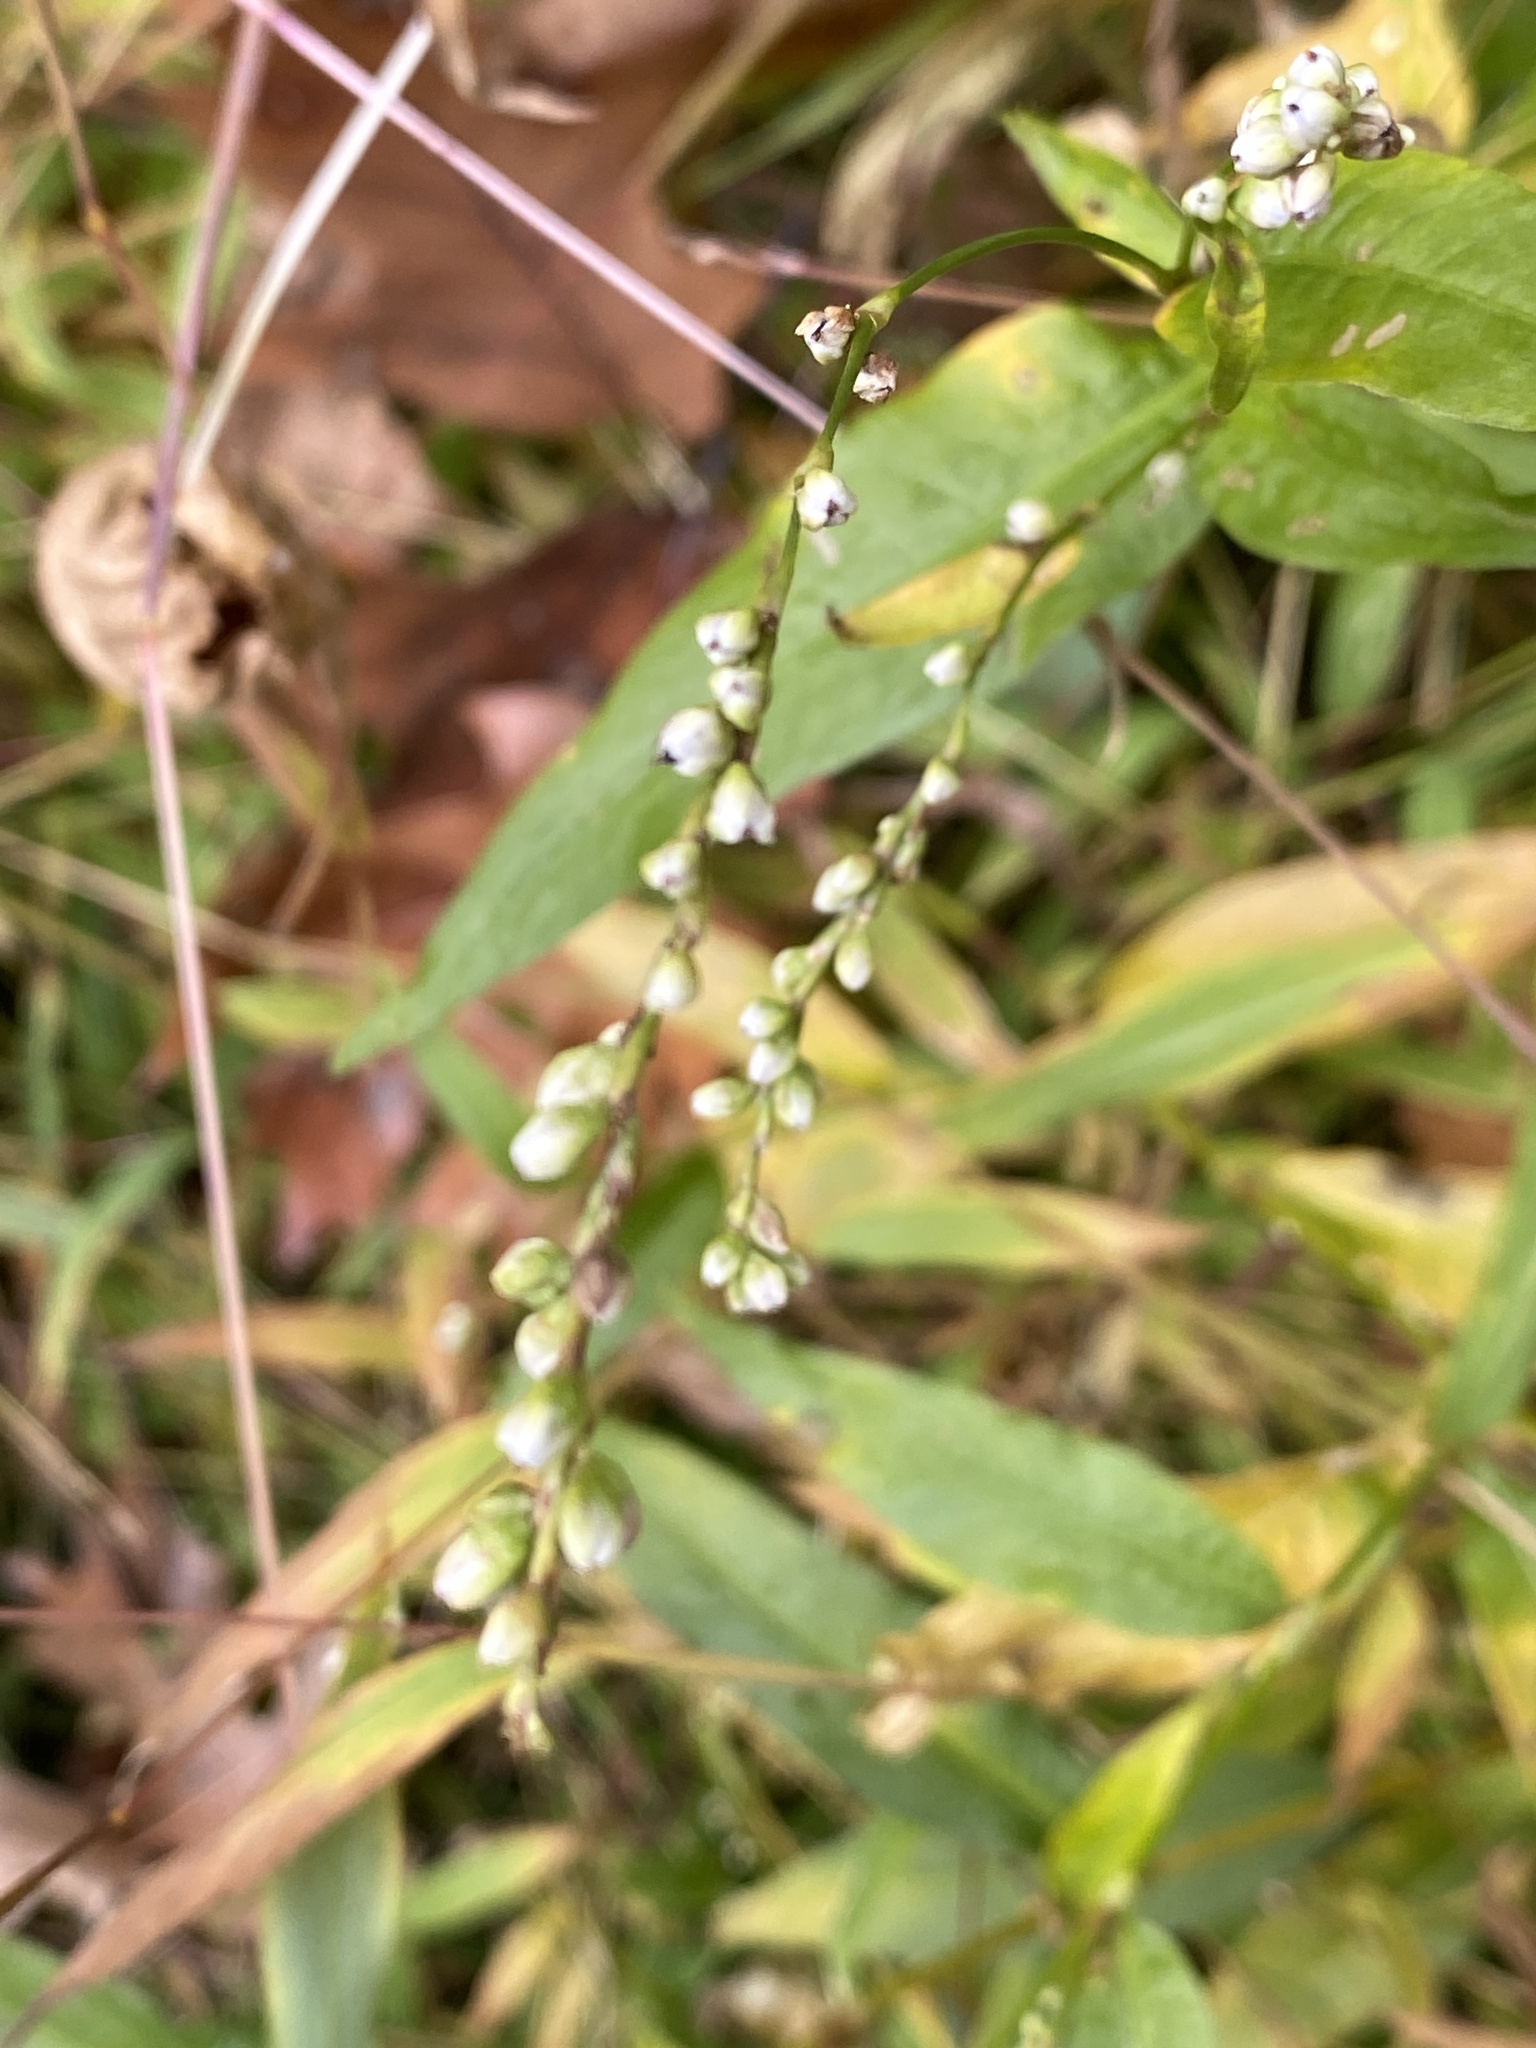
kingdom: Plantae
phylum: Tracheophyta
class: Magnoliopsida
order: Caryophyllales
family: Polygonaceae
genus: Persicaria
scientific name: Persicaria punctata
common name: Dotted smartweed
